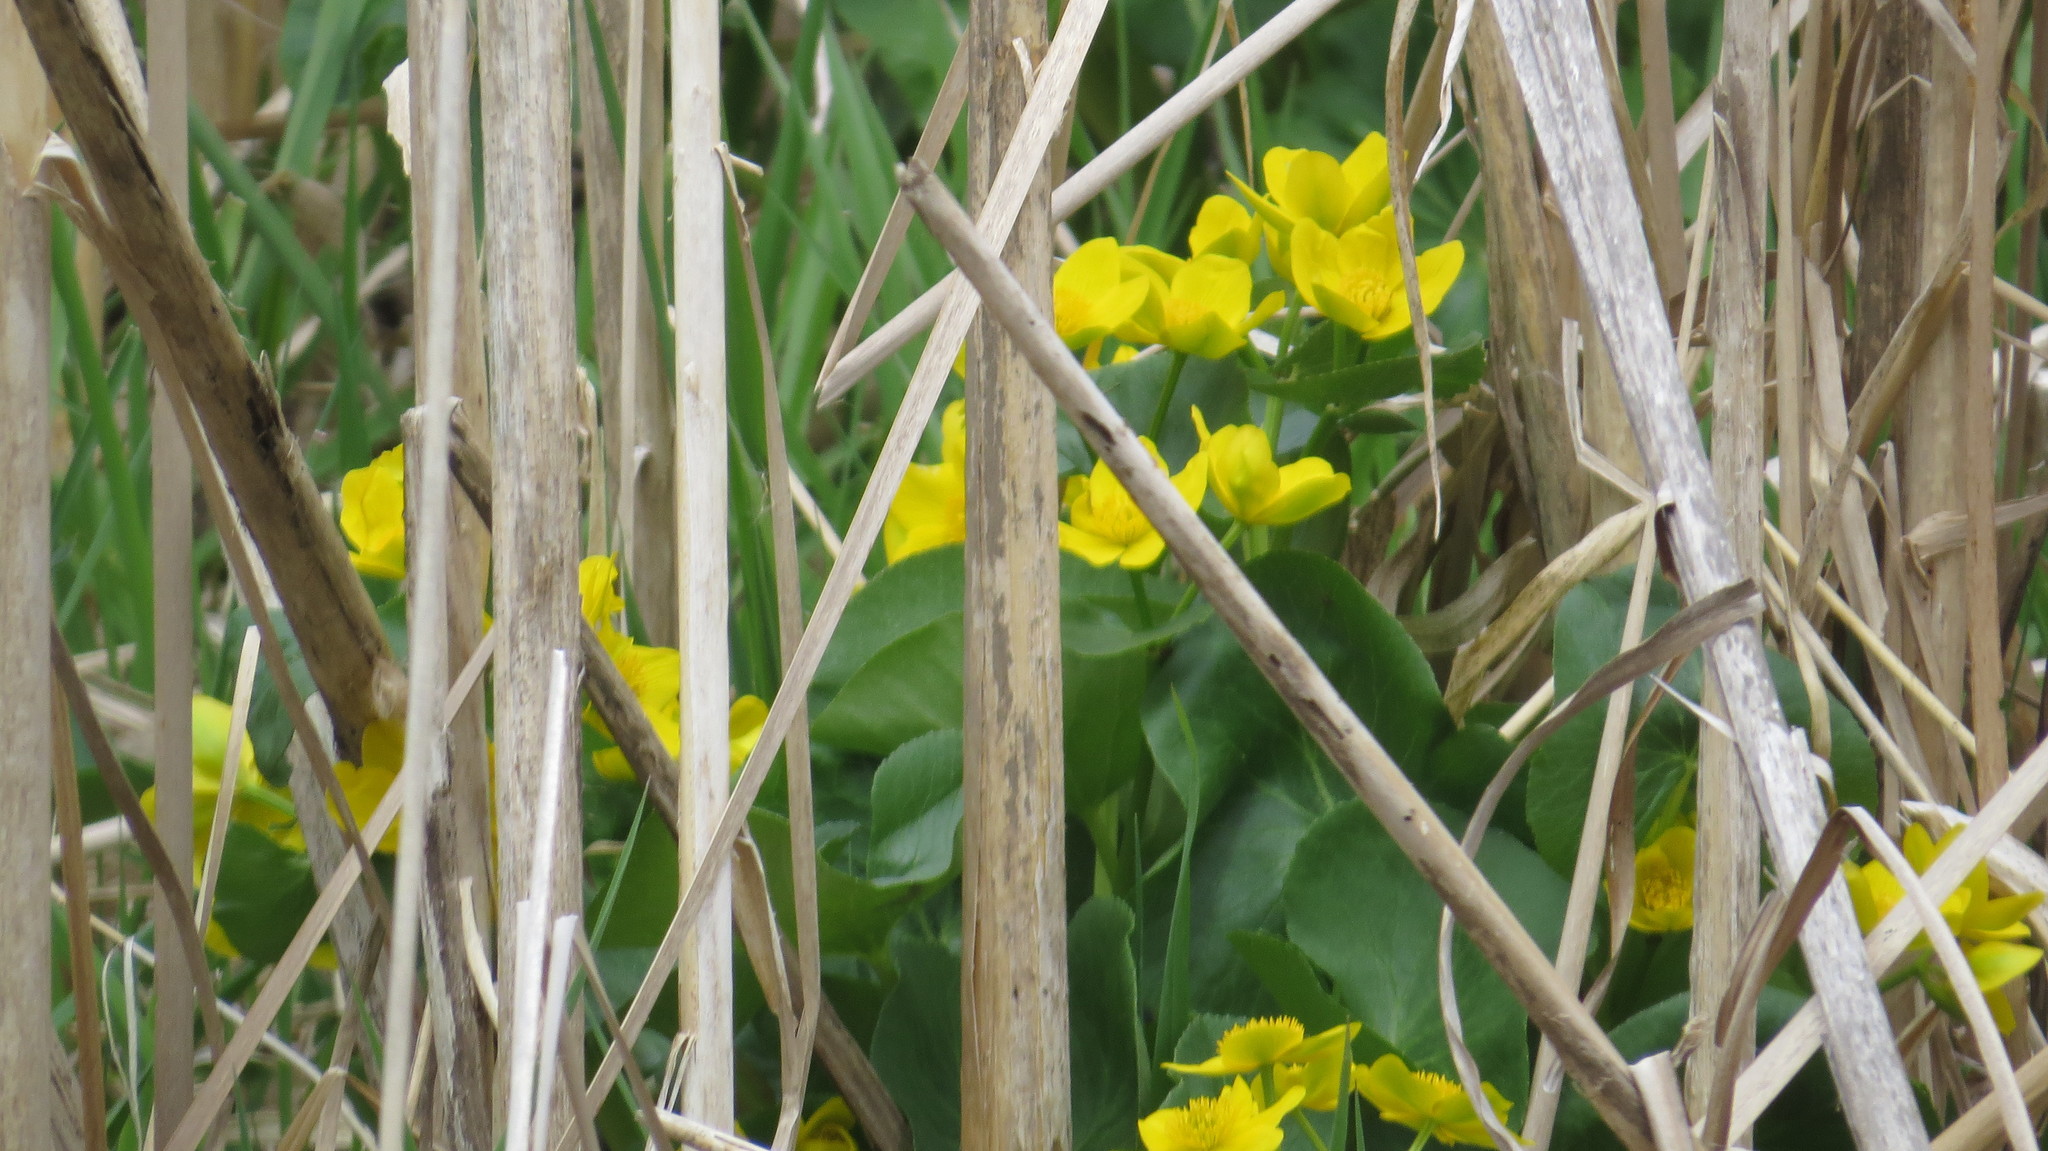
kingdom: Plantae
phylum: Tracheophyta
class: Magnoliopsida
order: Ranunculales
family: Ranunculaceae
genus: Caltha
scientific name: Caltha palustris
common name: Marsh marigold
